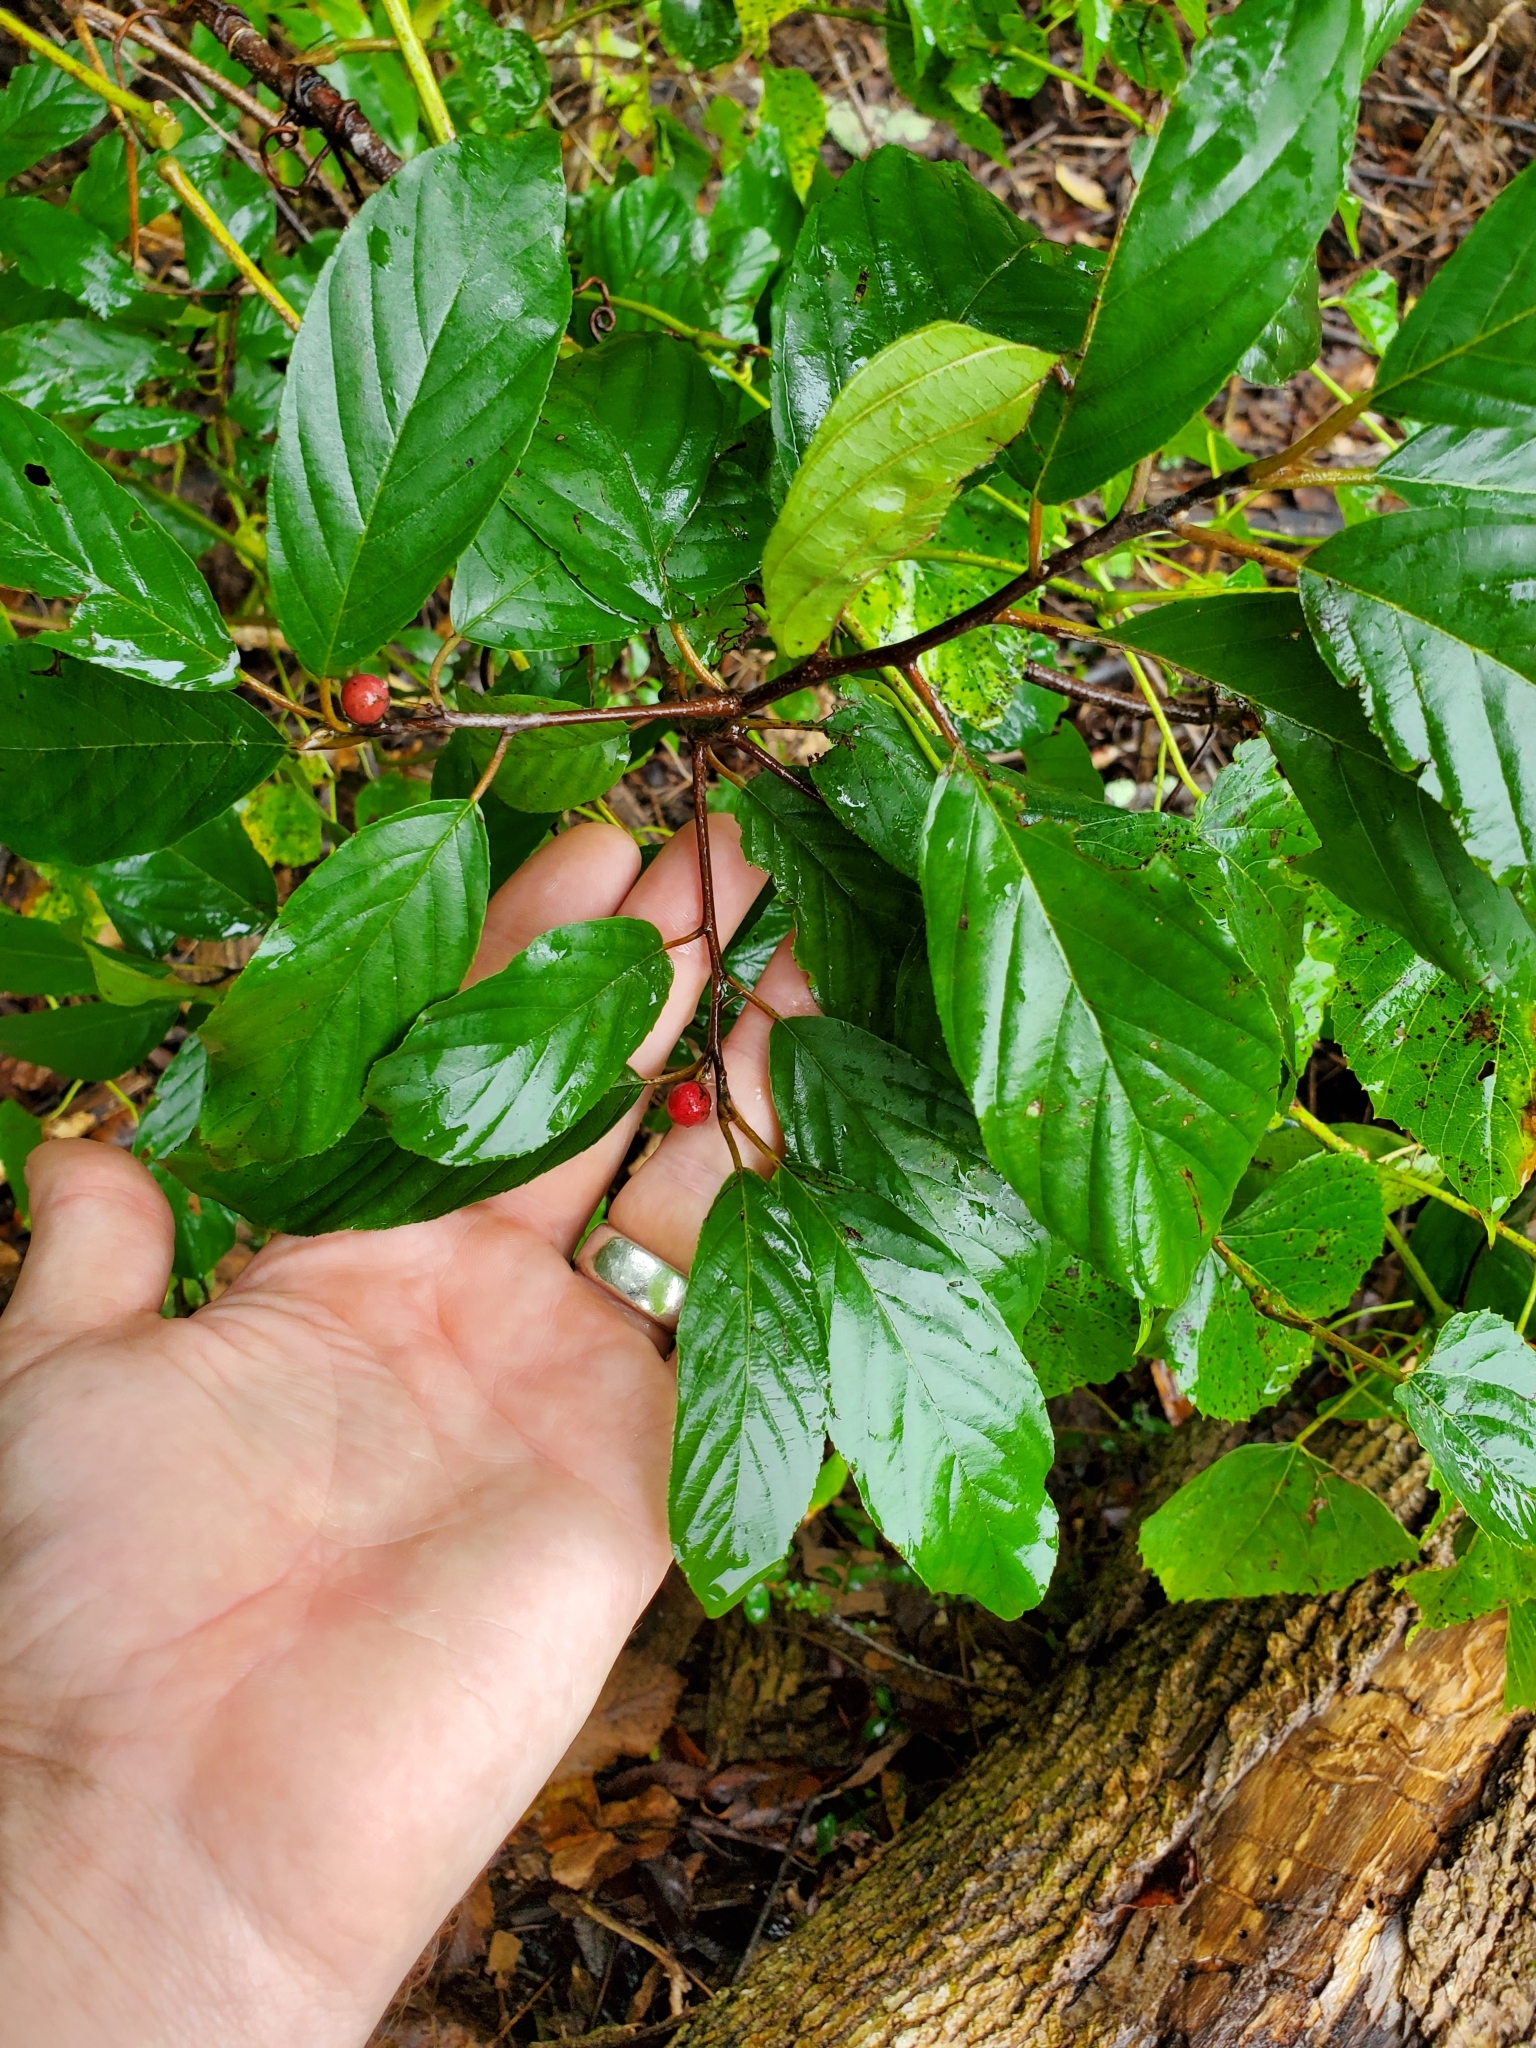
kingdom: Plantae
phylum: Tracheophyta
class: Magnoliopsida
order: Rosales
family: Rhamnaceae
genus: Frangula
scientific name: Frangula caroliniana
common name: Carolina buckthorn
